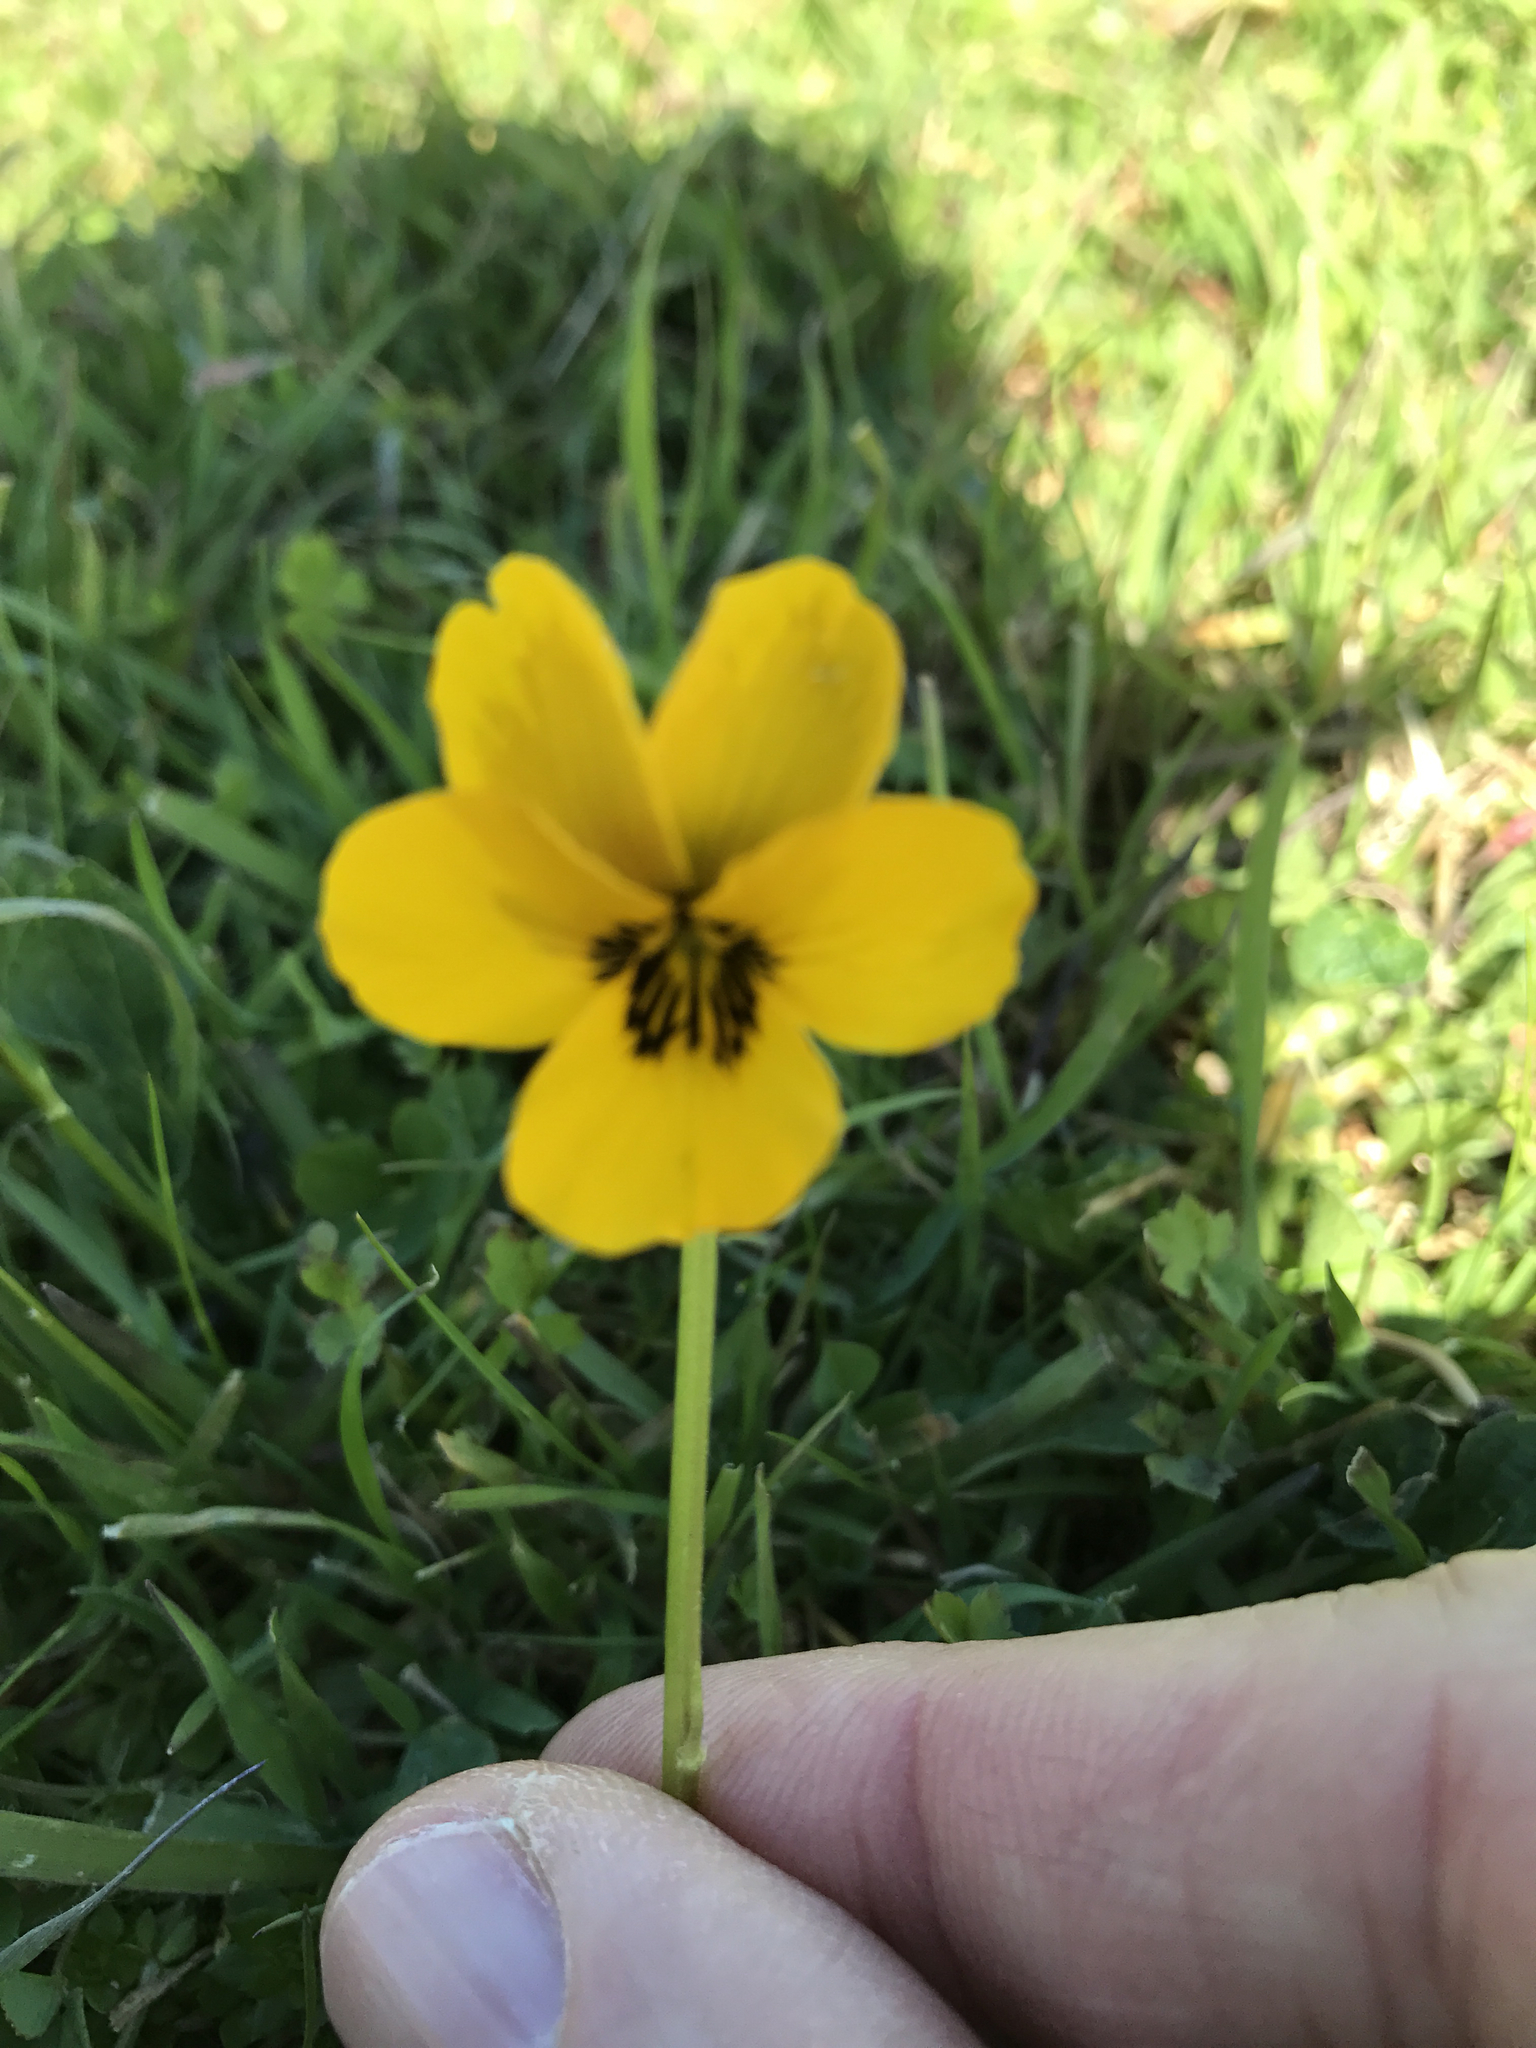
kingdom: Plantae
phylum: Tracheophyta
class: Magnoliopsida
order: Malpighiales
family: Violaceae
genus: Viola
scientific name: Viola pedunculata
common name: California golden violet
